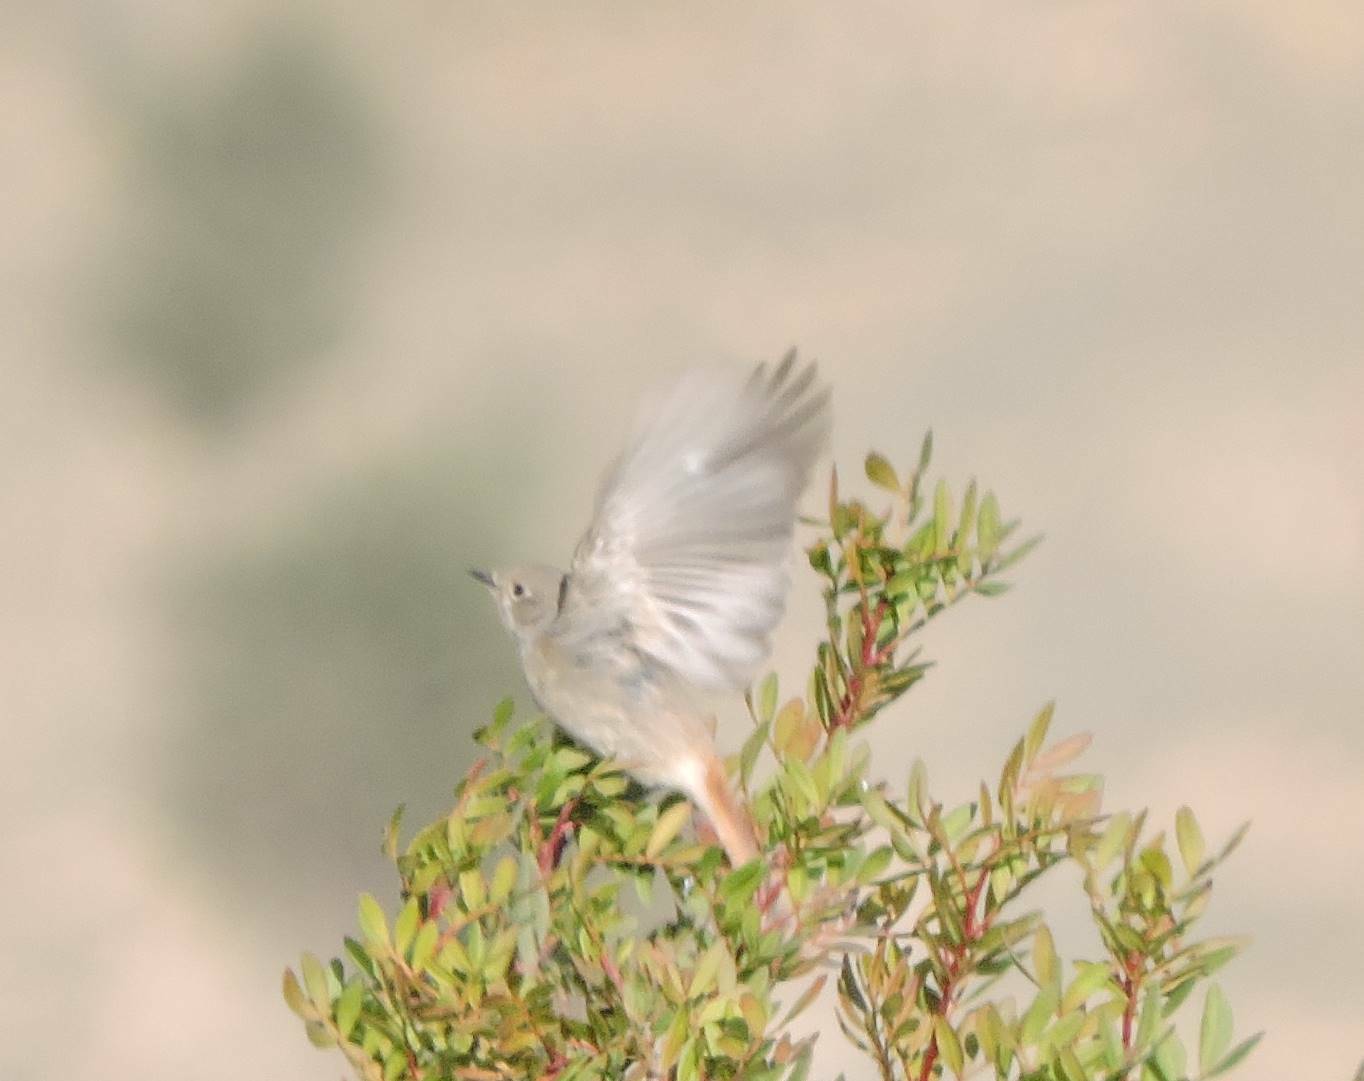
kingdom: Animalia
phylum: Chordata
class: Aves
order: Passeriformes
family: Muscicapidae
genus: Phoenicurus
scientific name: Phoenicurus ochruros
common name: Black redstart
